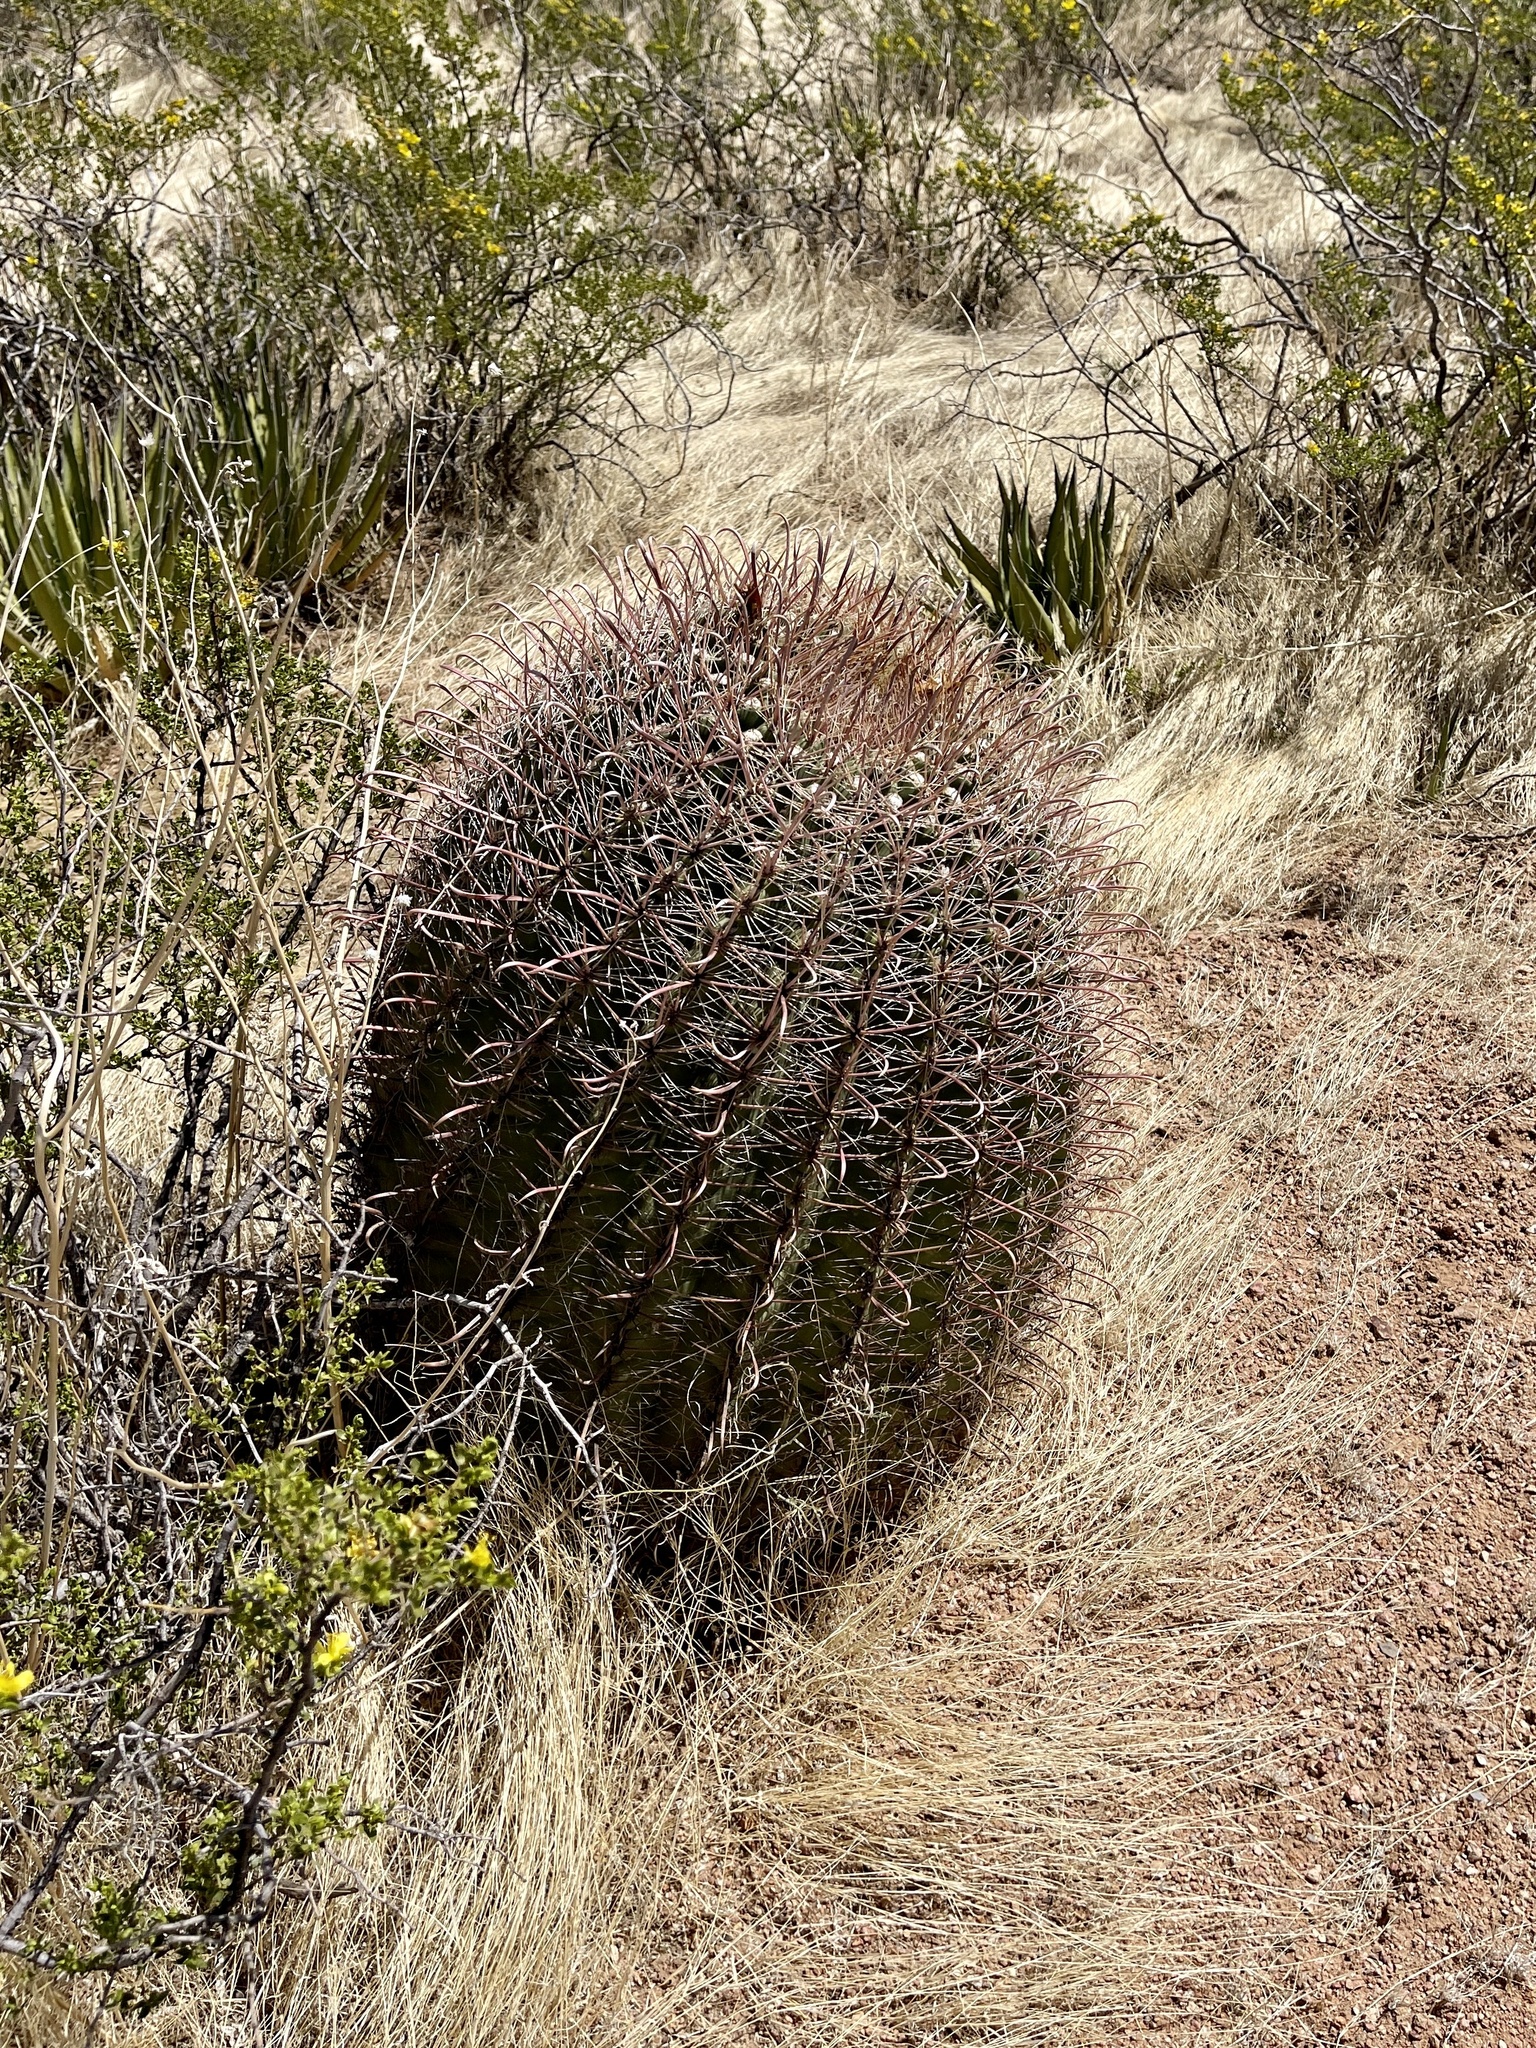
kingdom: Plantae
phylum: Tracheophyta
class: Magnoliopsida
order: Caryophyllales
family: Cactaceae
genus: Ferocactus
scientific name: Ferocactus wislizeni
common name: Candy barrel cactus
